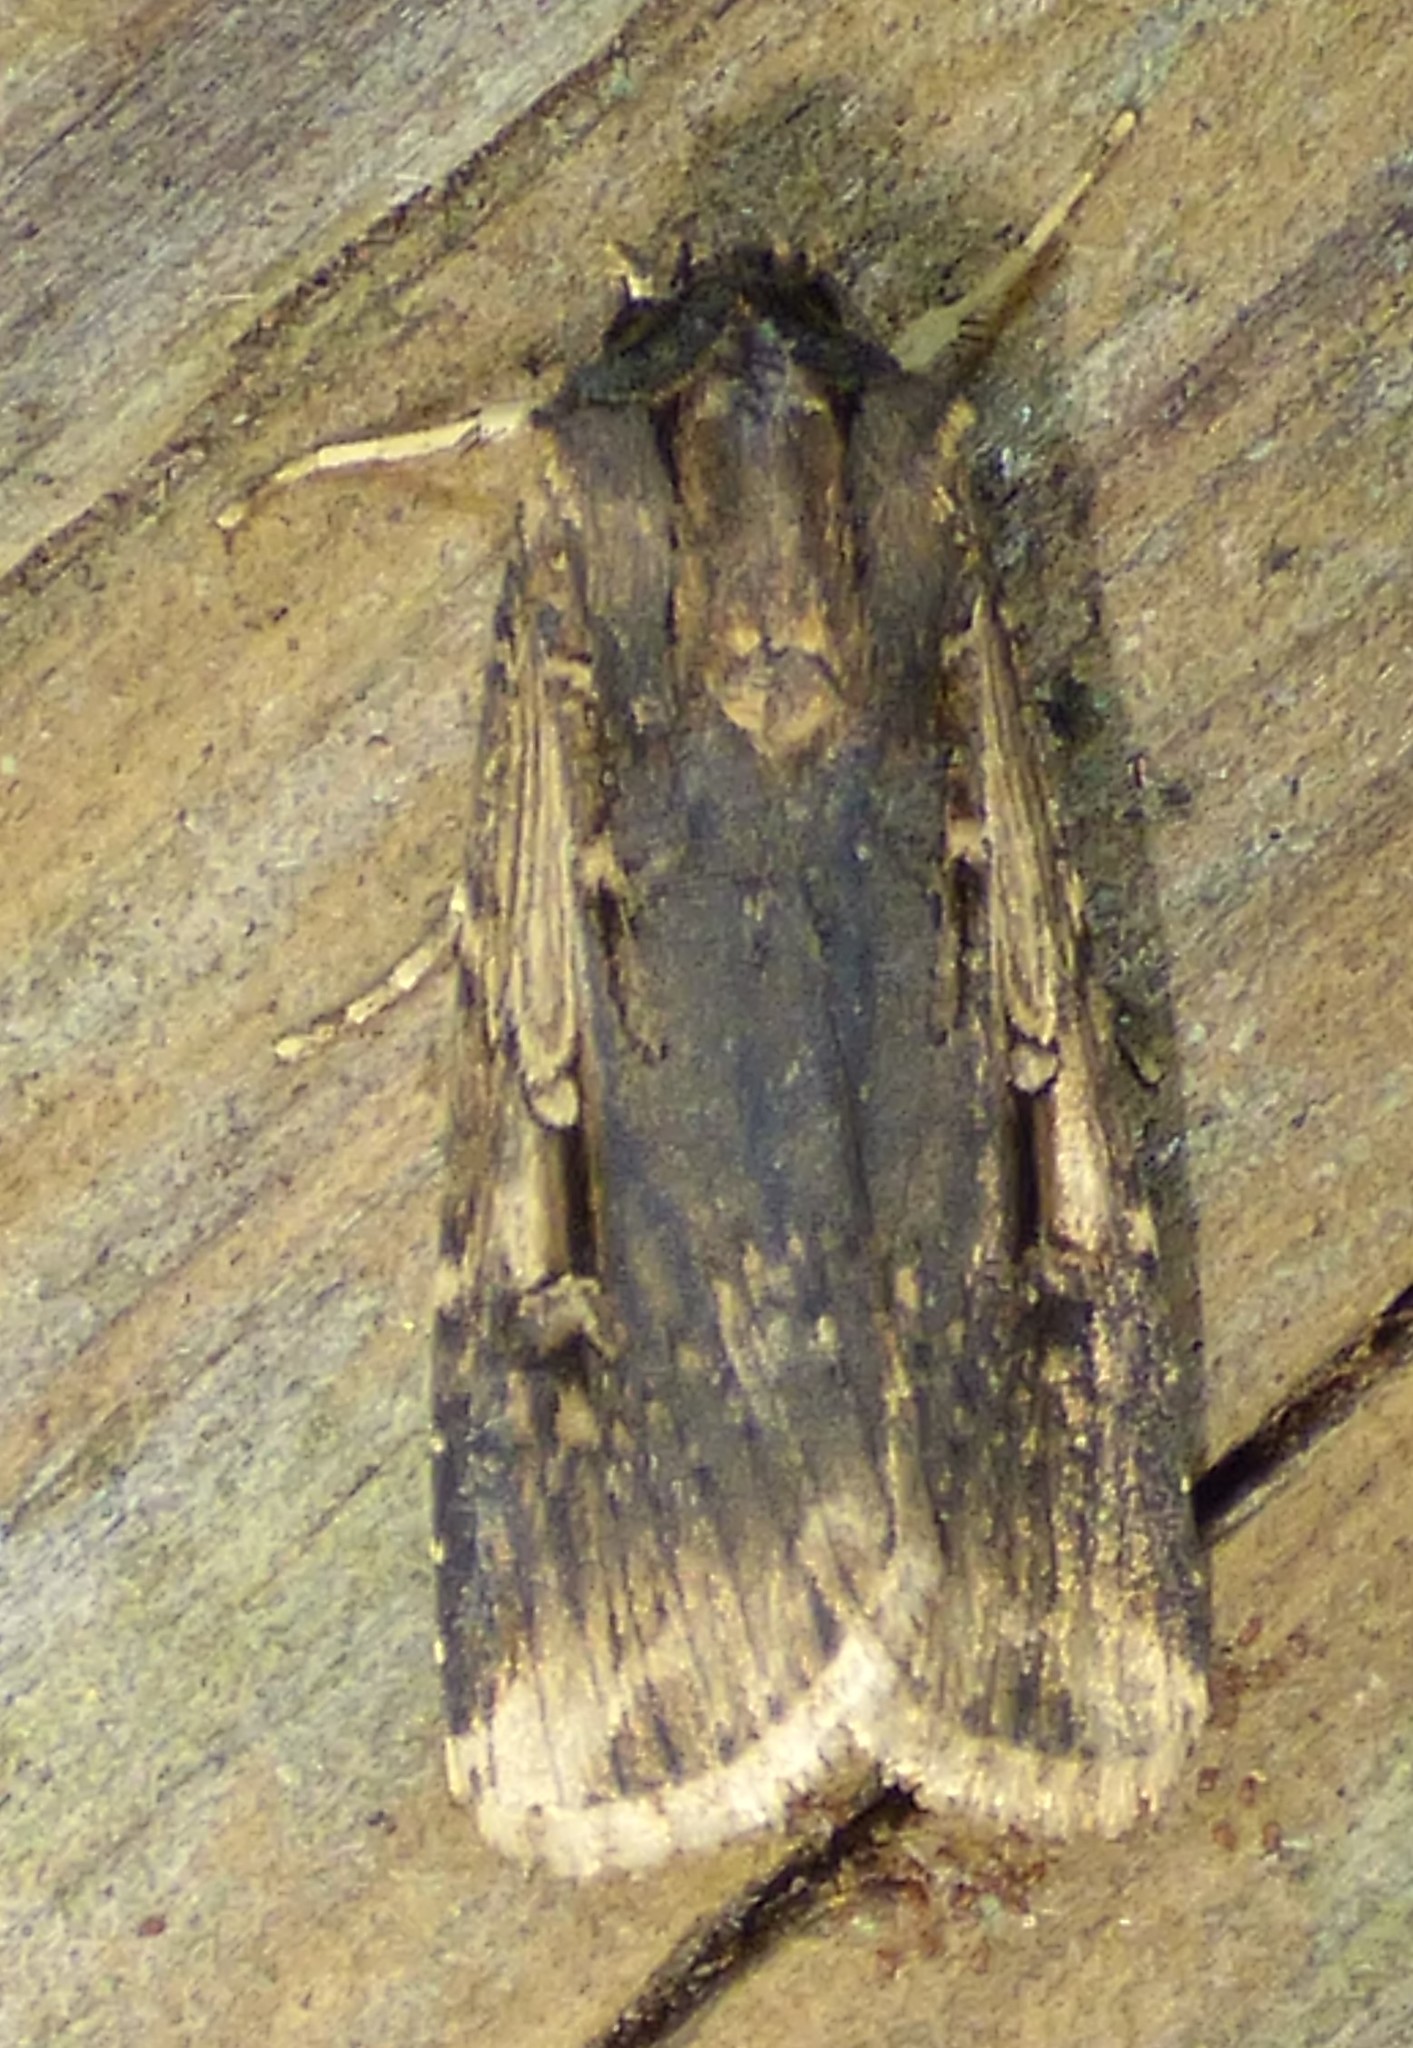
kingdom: Animalia
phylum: Arthropoda
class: Insecta
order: Lepidoptera
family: Noctuidae
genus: Feltia
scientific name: Feltia subterranea
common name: Granulate cutworm
